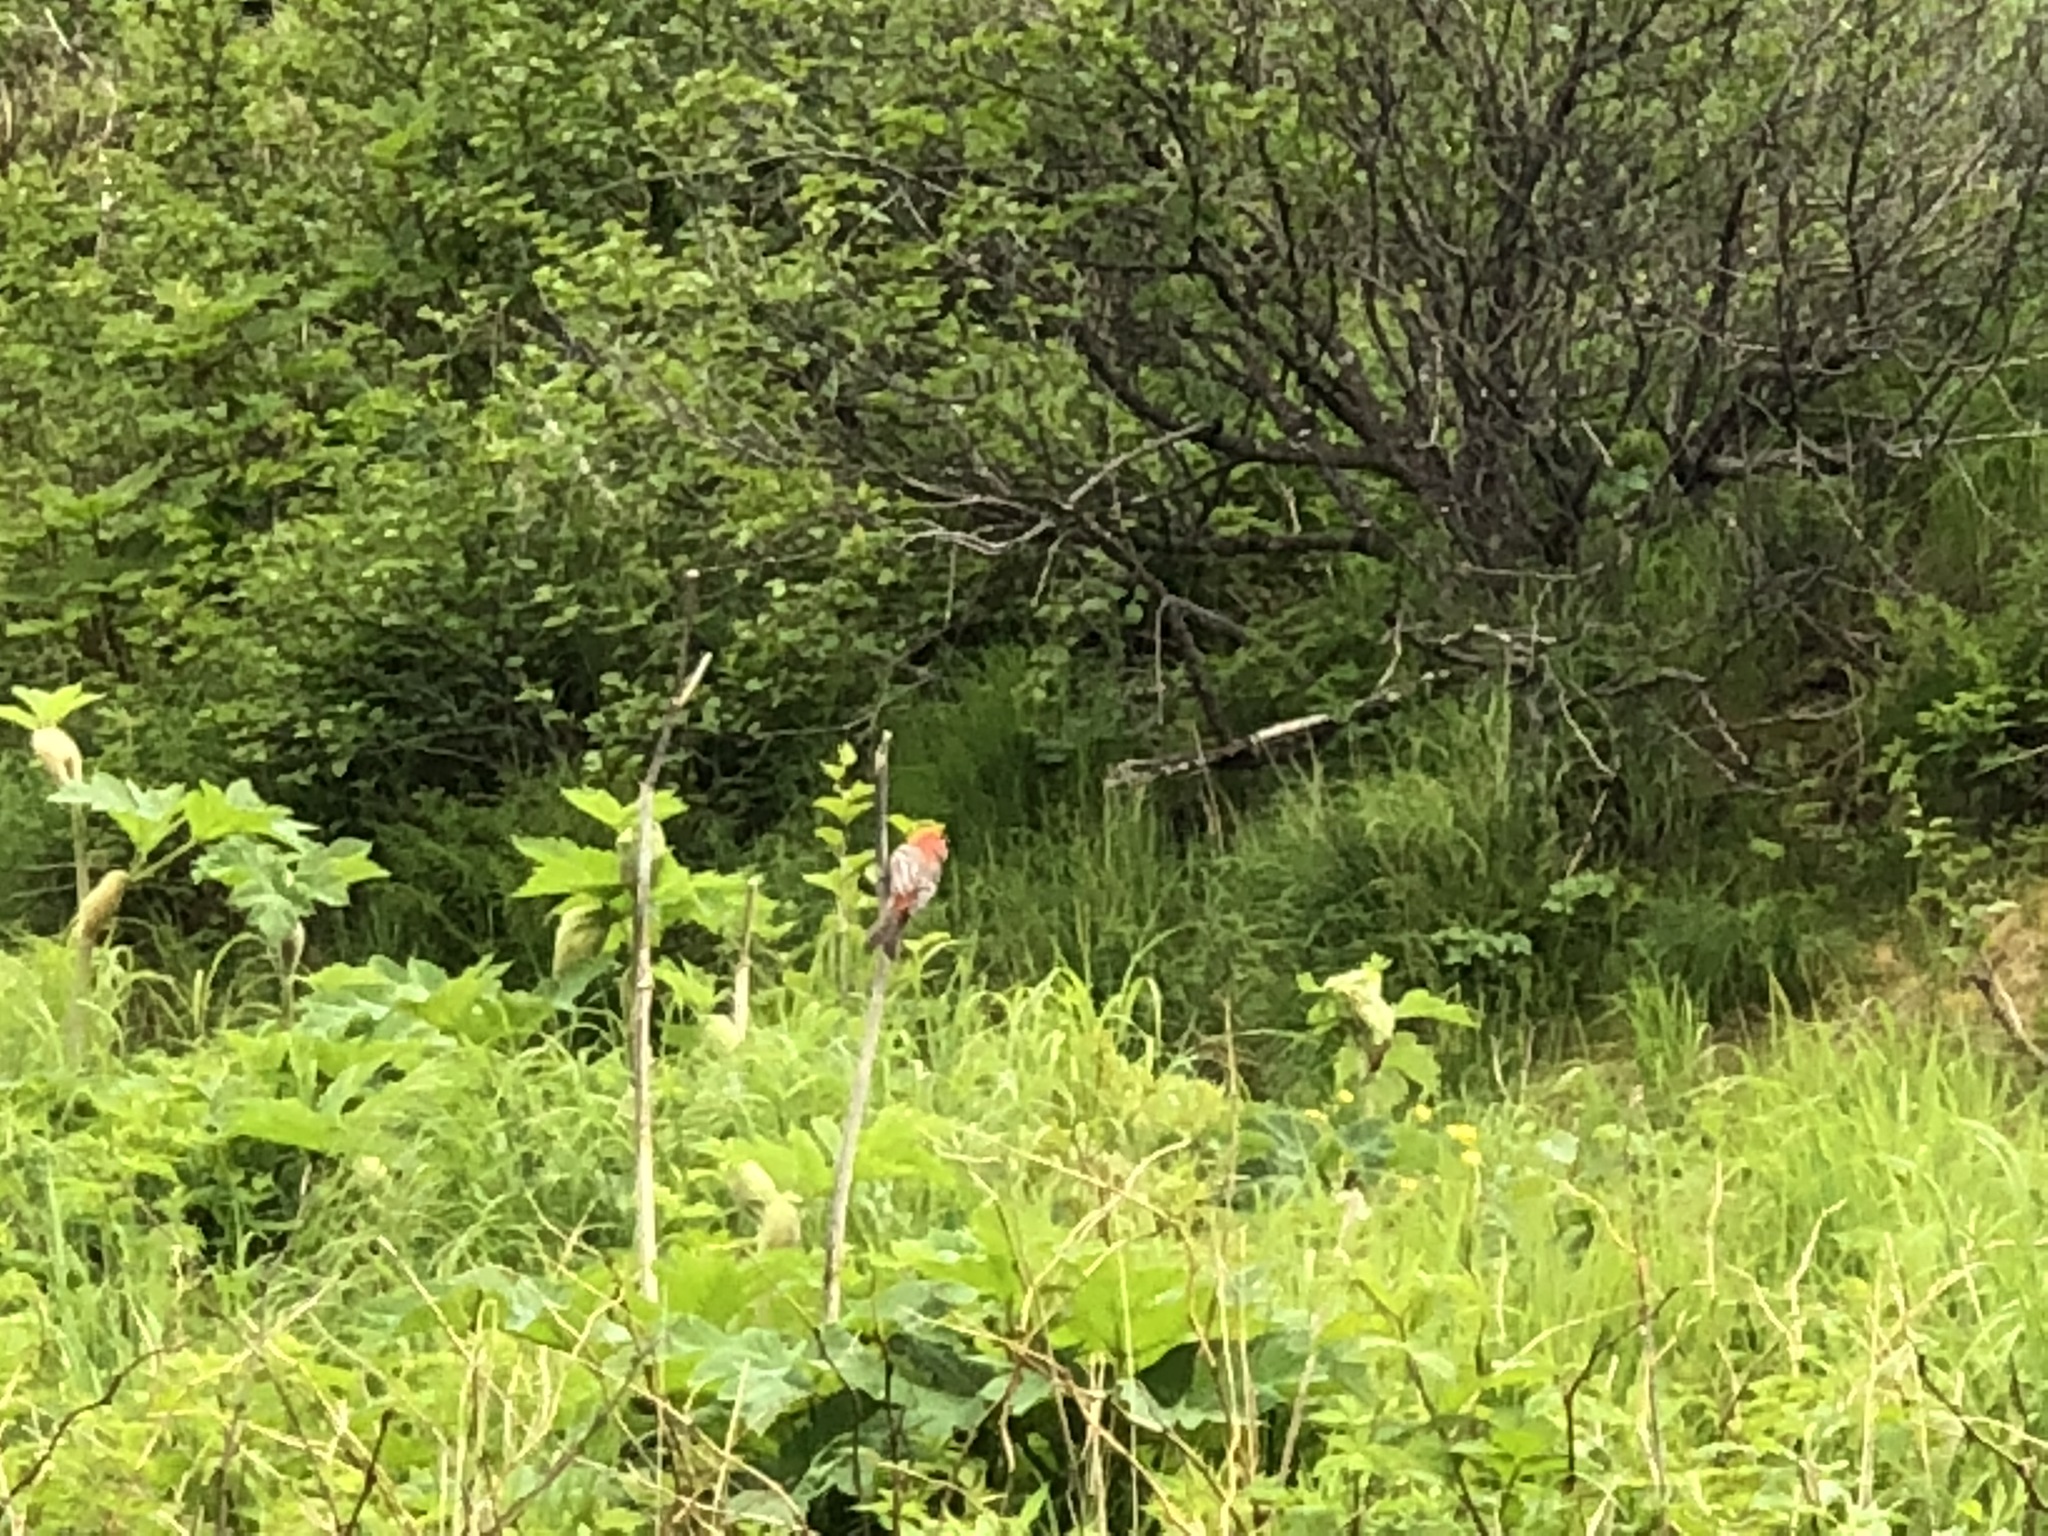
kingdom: Animalia
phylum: Chordata
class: Aves
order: Passeriformes
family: Fringillidae
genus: Pinicola
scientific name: Pinicola enucleator
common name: Pine grosbeak
